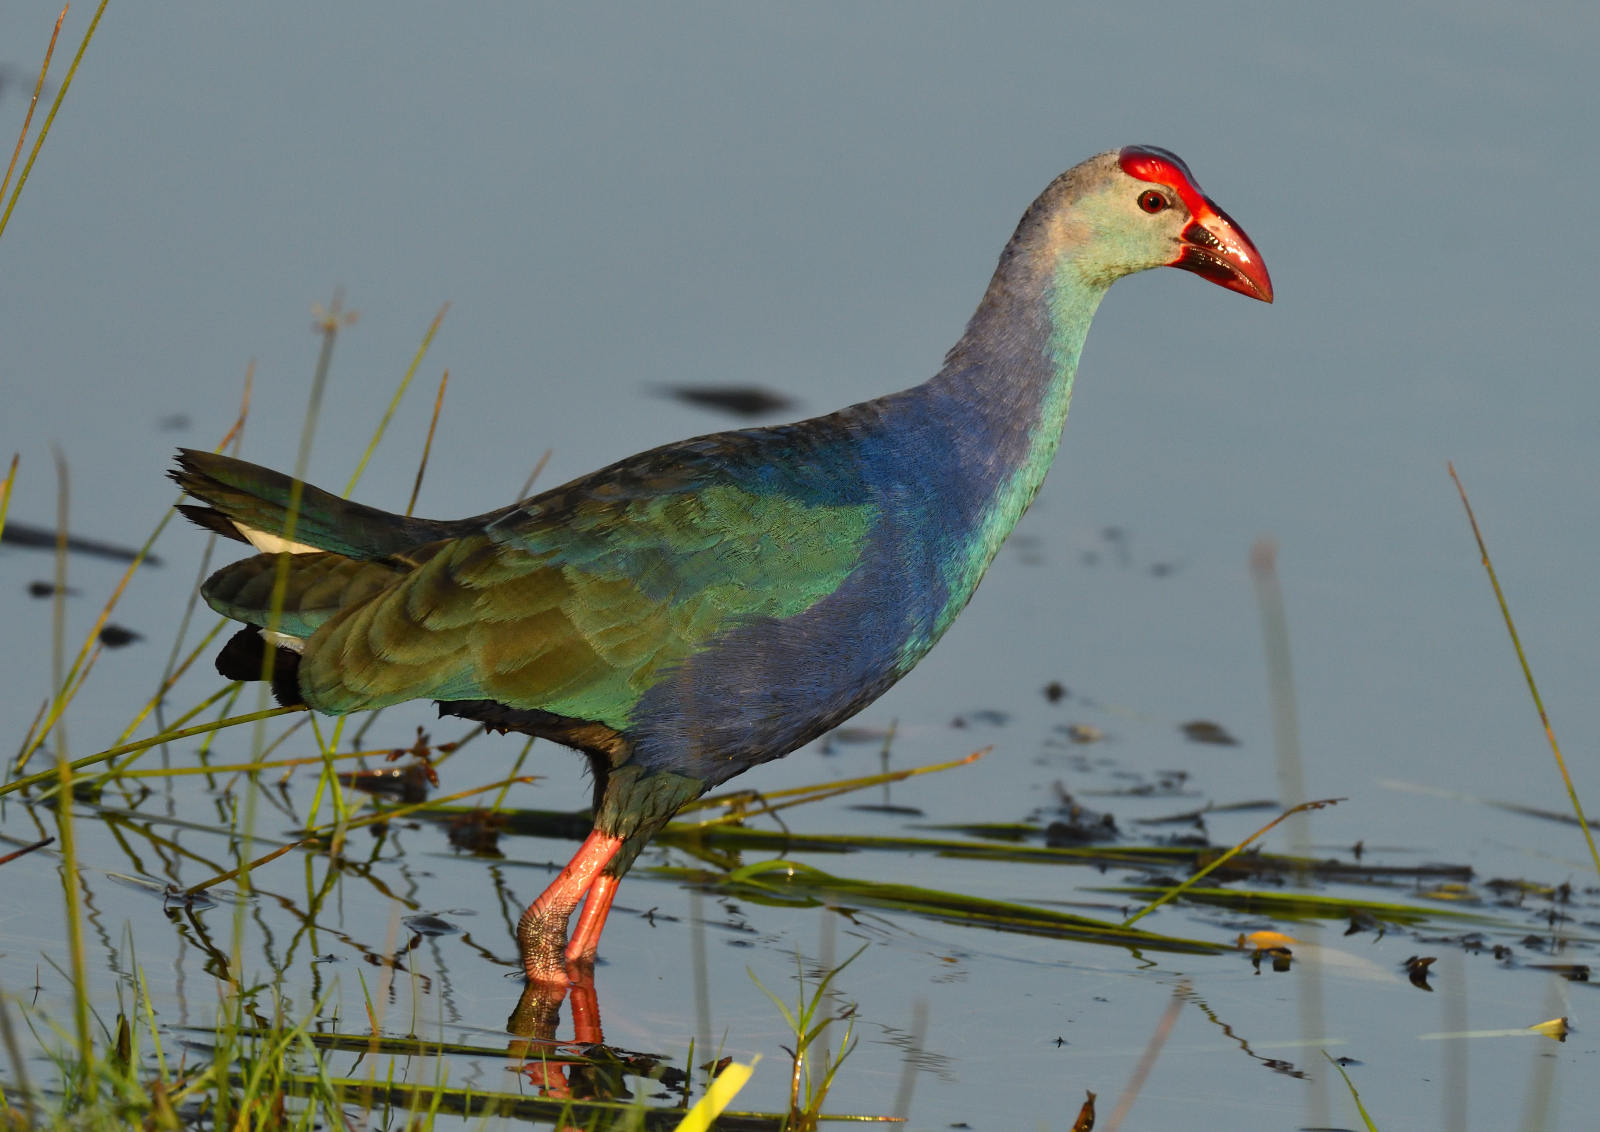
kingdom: Animalia
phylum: Chordata
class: Aves
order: Gruiformes
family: Rallidae
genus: Porphyrio
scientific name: Porphyrio porphyrio
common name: Purple swamphen
